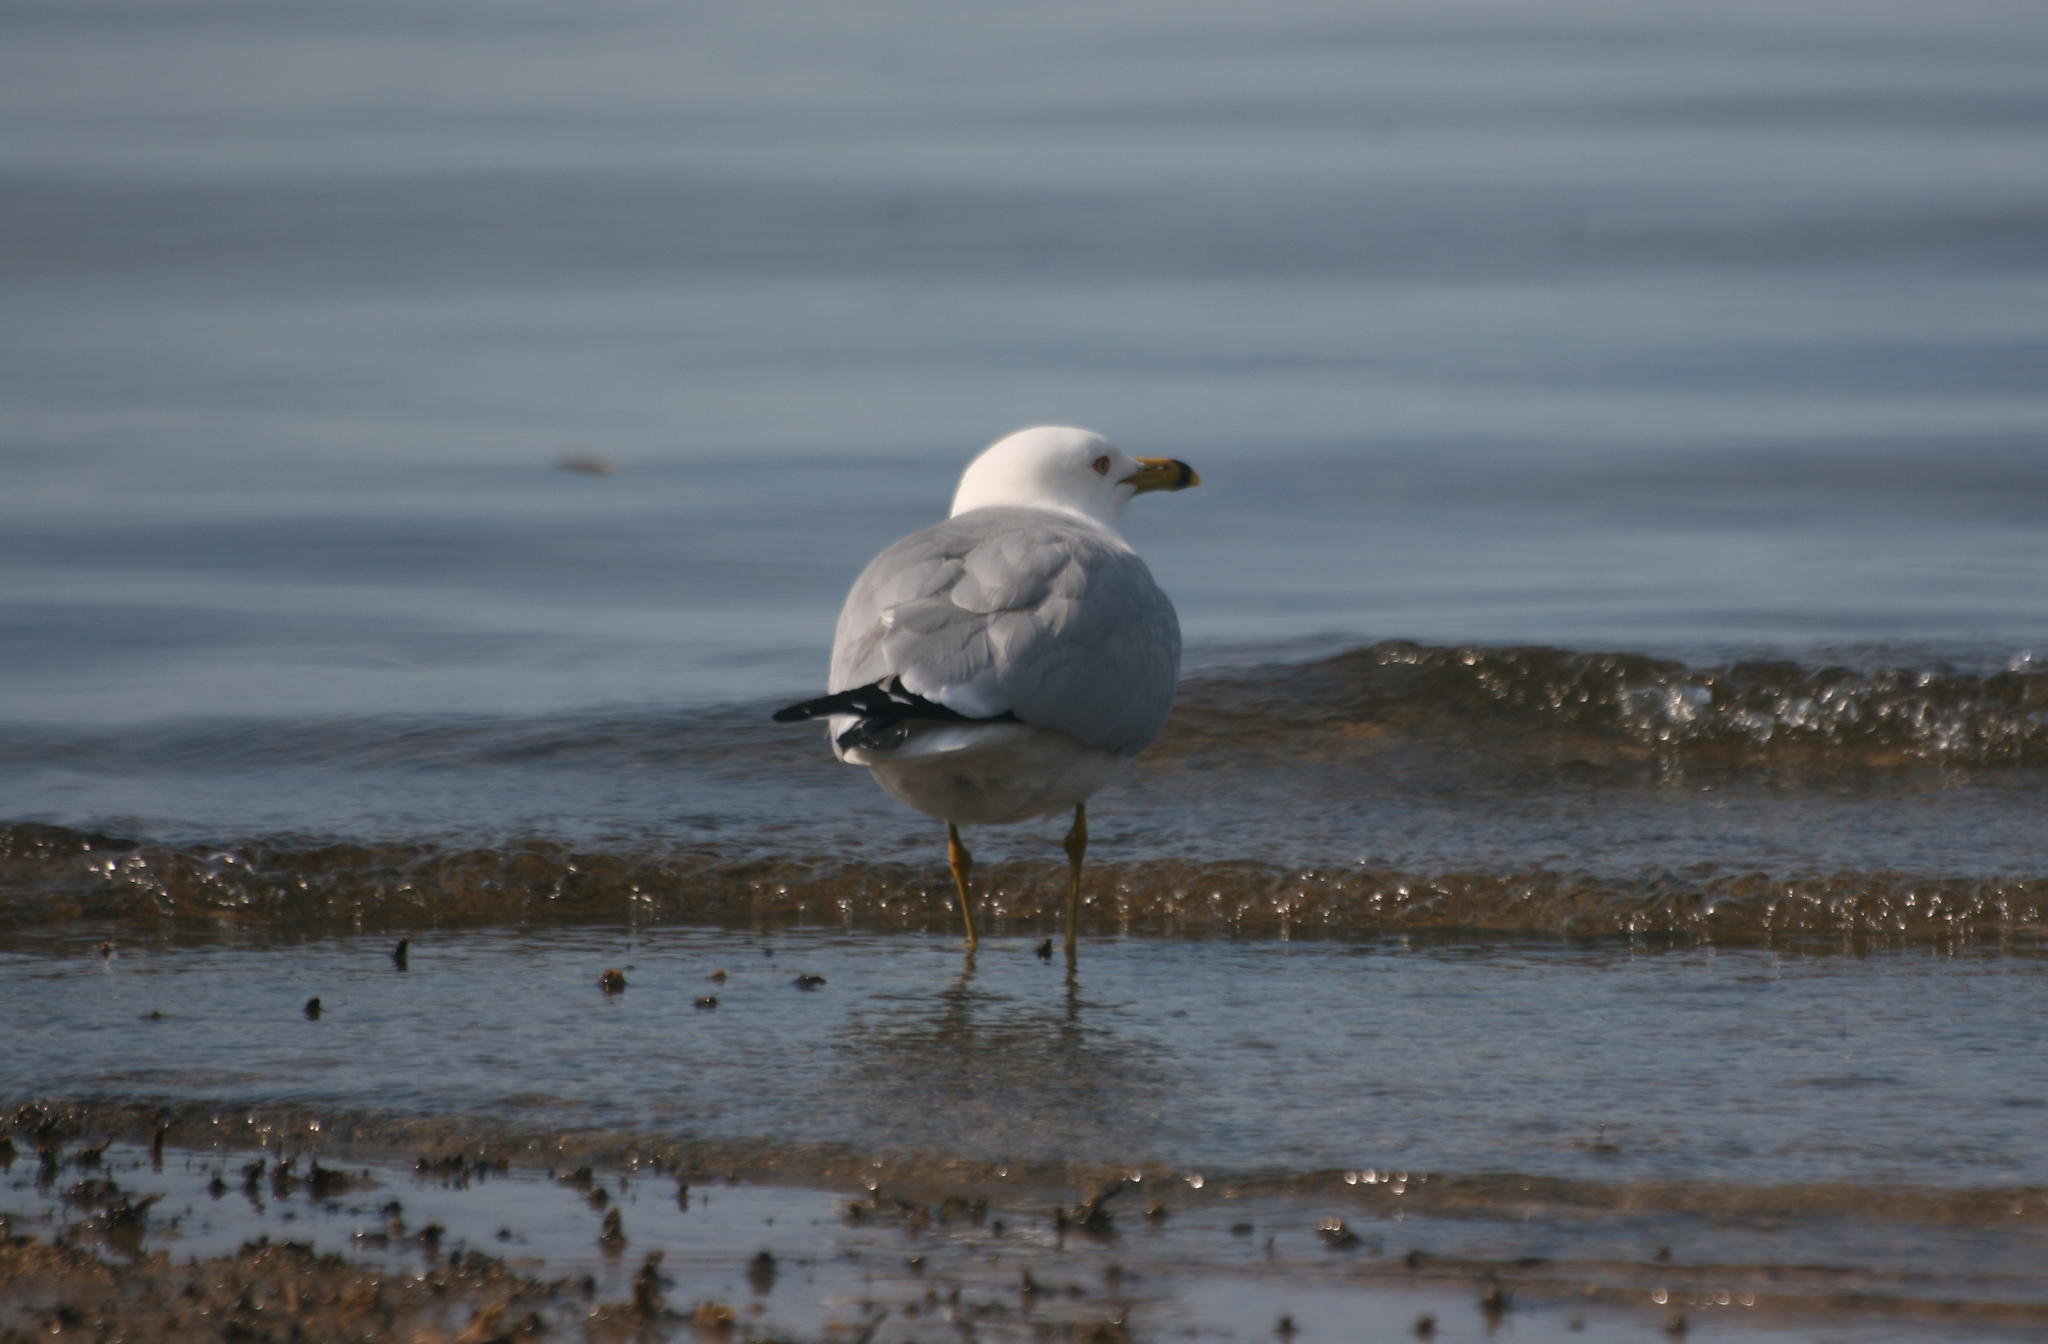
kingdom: Animalia
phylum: Chordata
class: Aves
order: Charadriiformes
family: Laridae
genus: Larus
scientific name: Larus delawarensis
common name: Ring-billed gull
